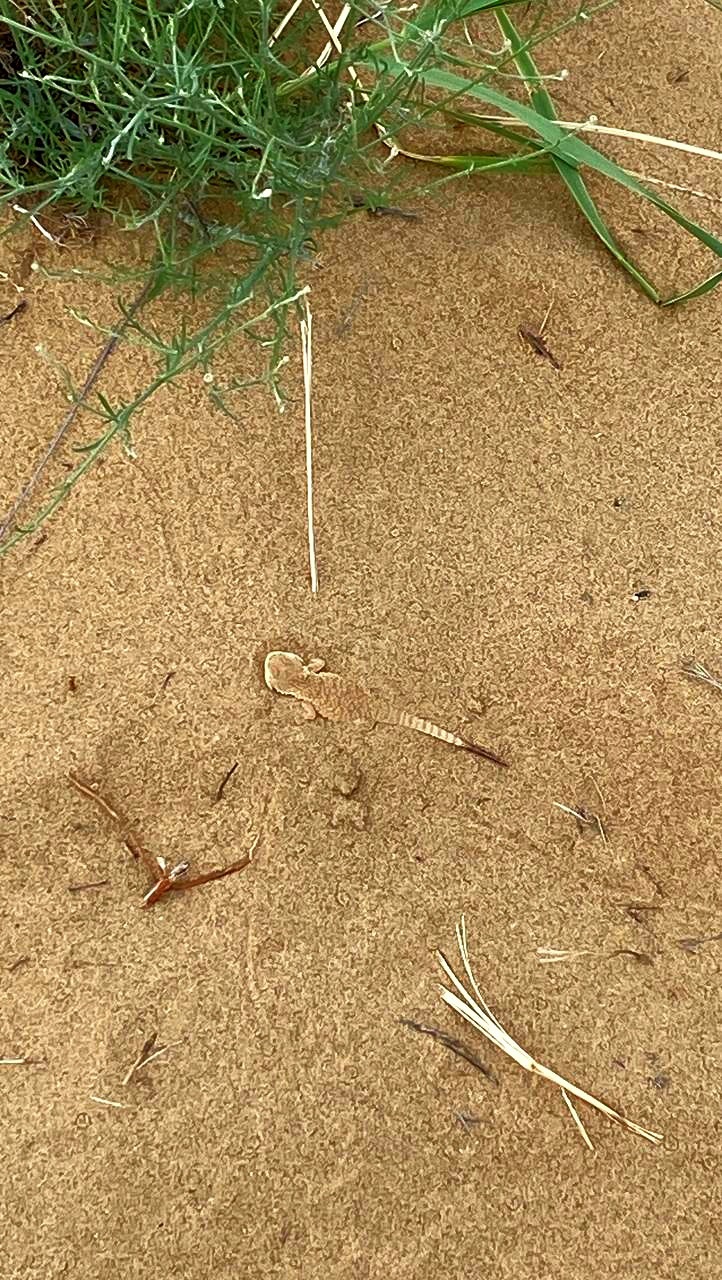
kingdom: Animalia
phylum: Chordata
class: Squamata
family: Agamidae
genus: Phrynocephalus
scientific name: Phrynocephalus mystaceus
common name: Secret toadhead agama
